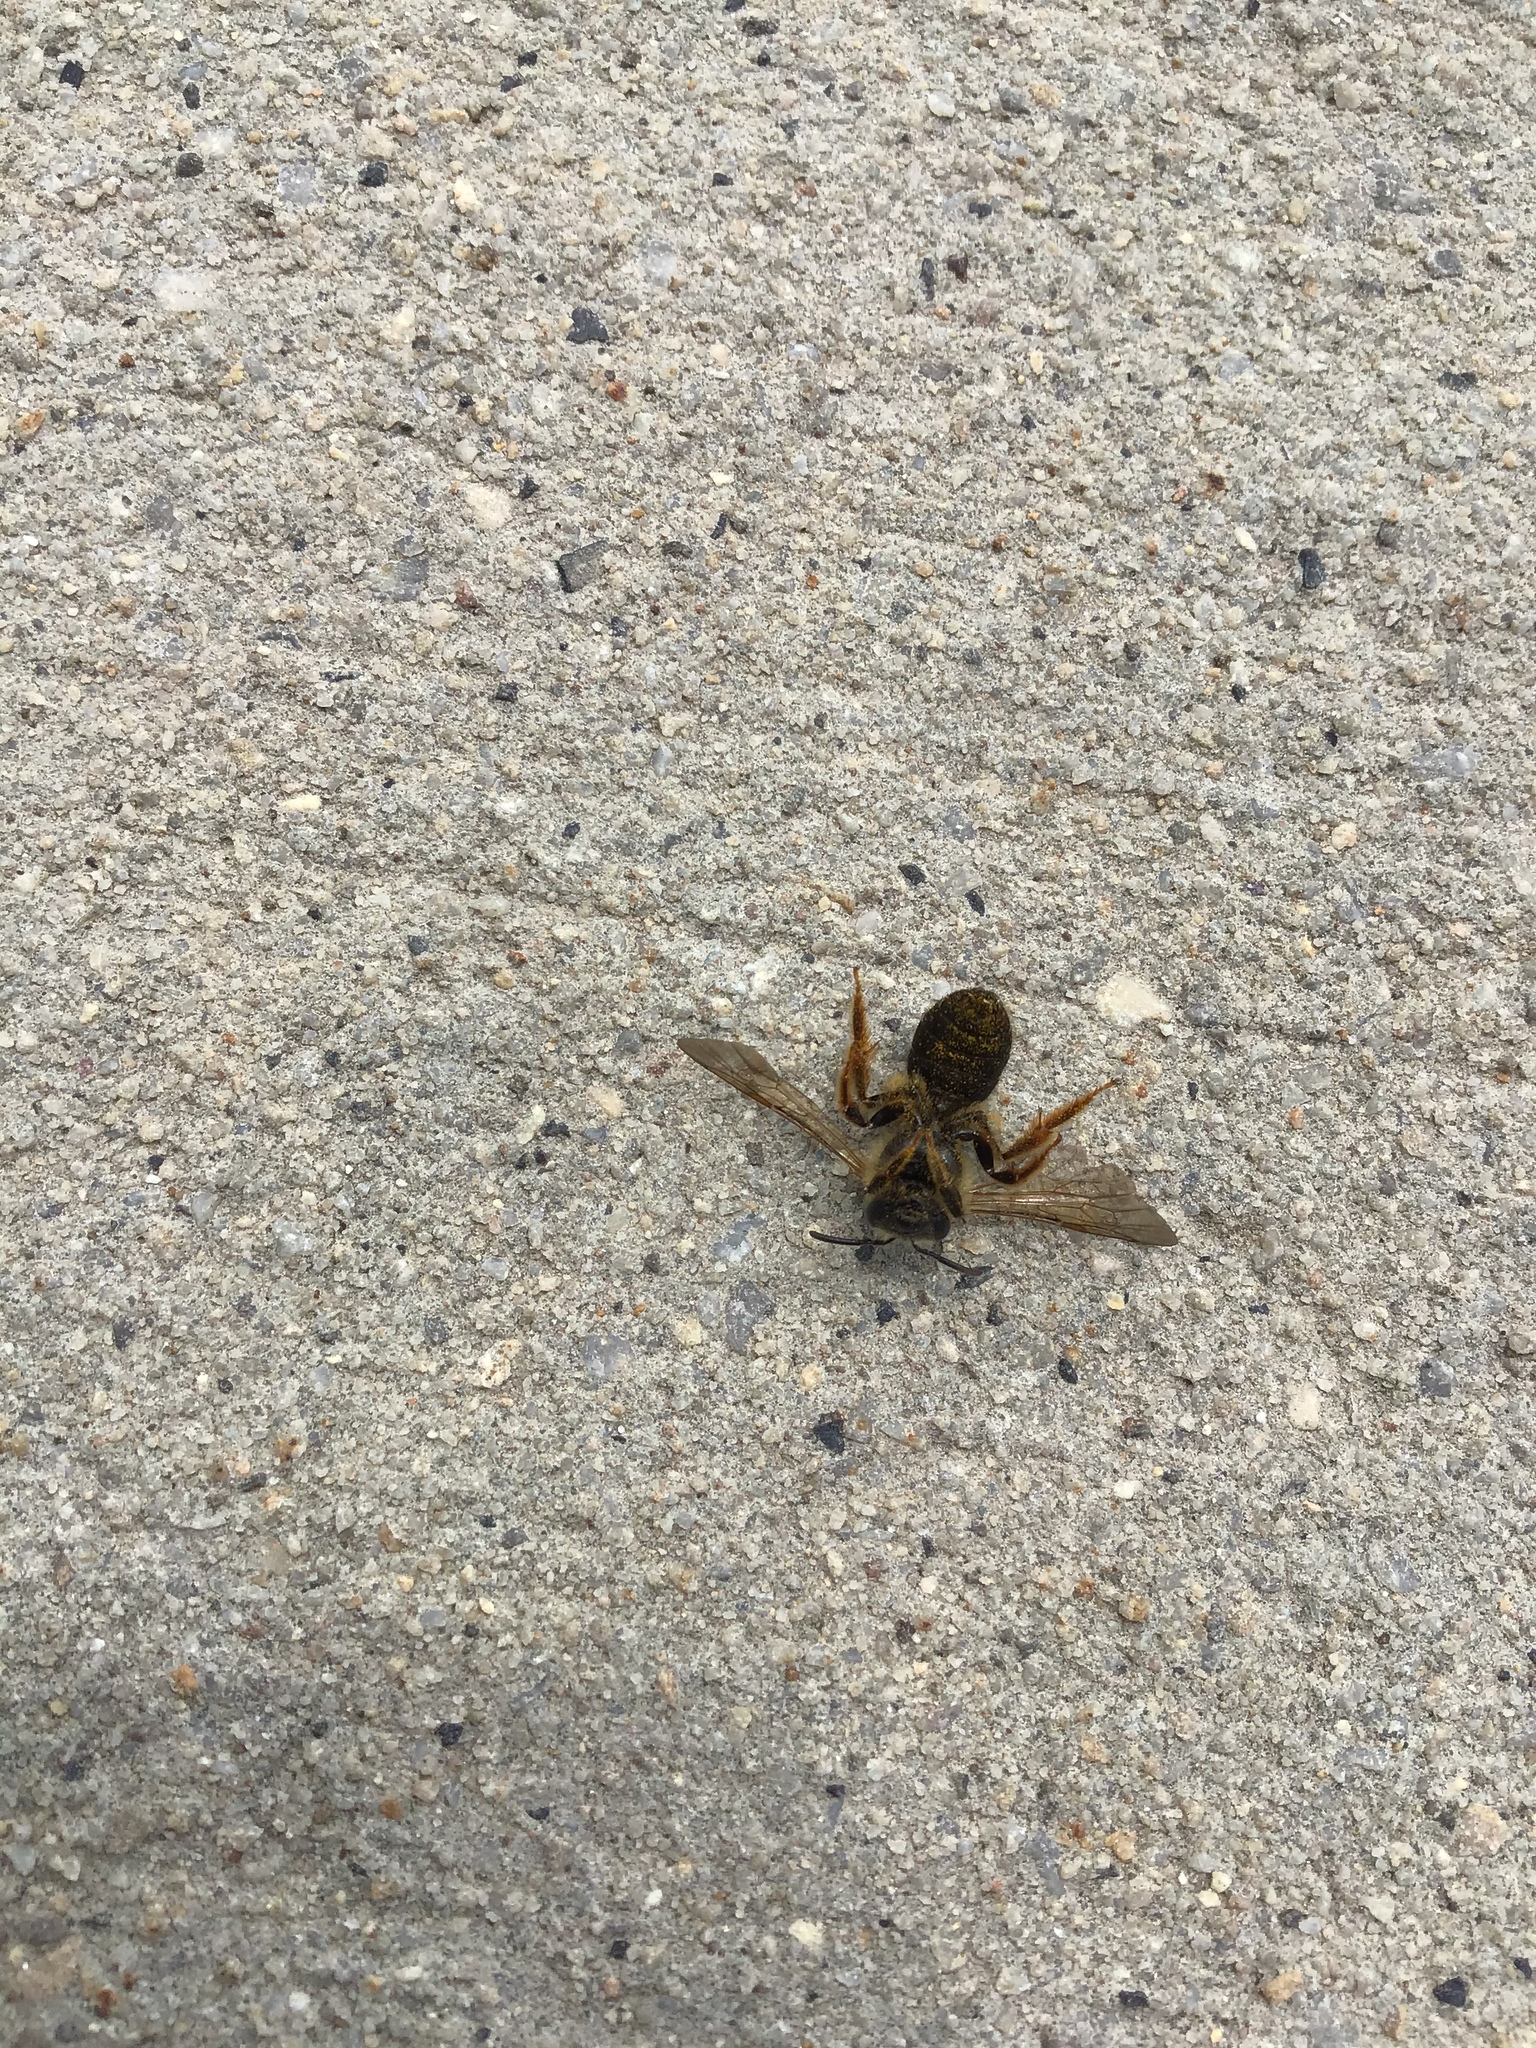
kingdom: Animalia
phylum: Arthropoda
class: Insecta
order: Hymenoptera
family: Halictidae
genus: Halictus
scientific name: Halictus rubicundus
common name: Orange-legged furrow bee
